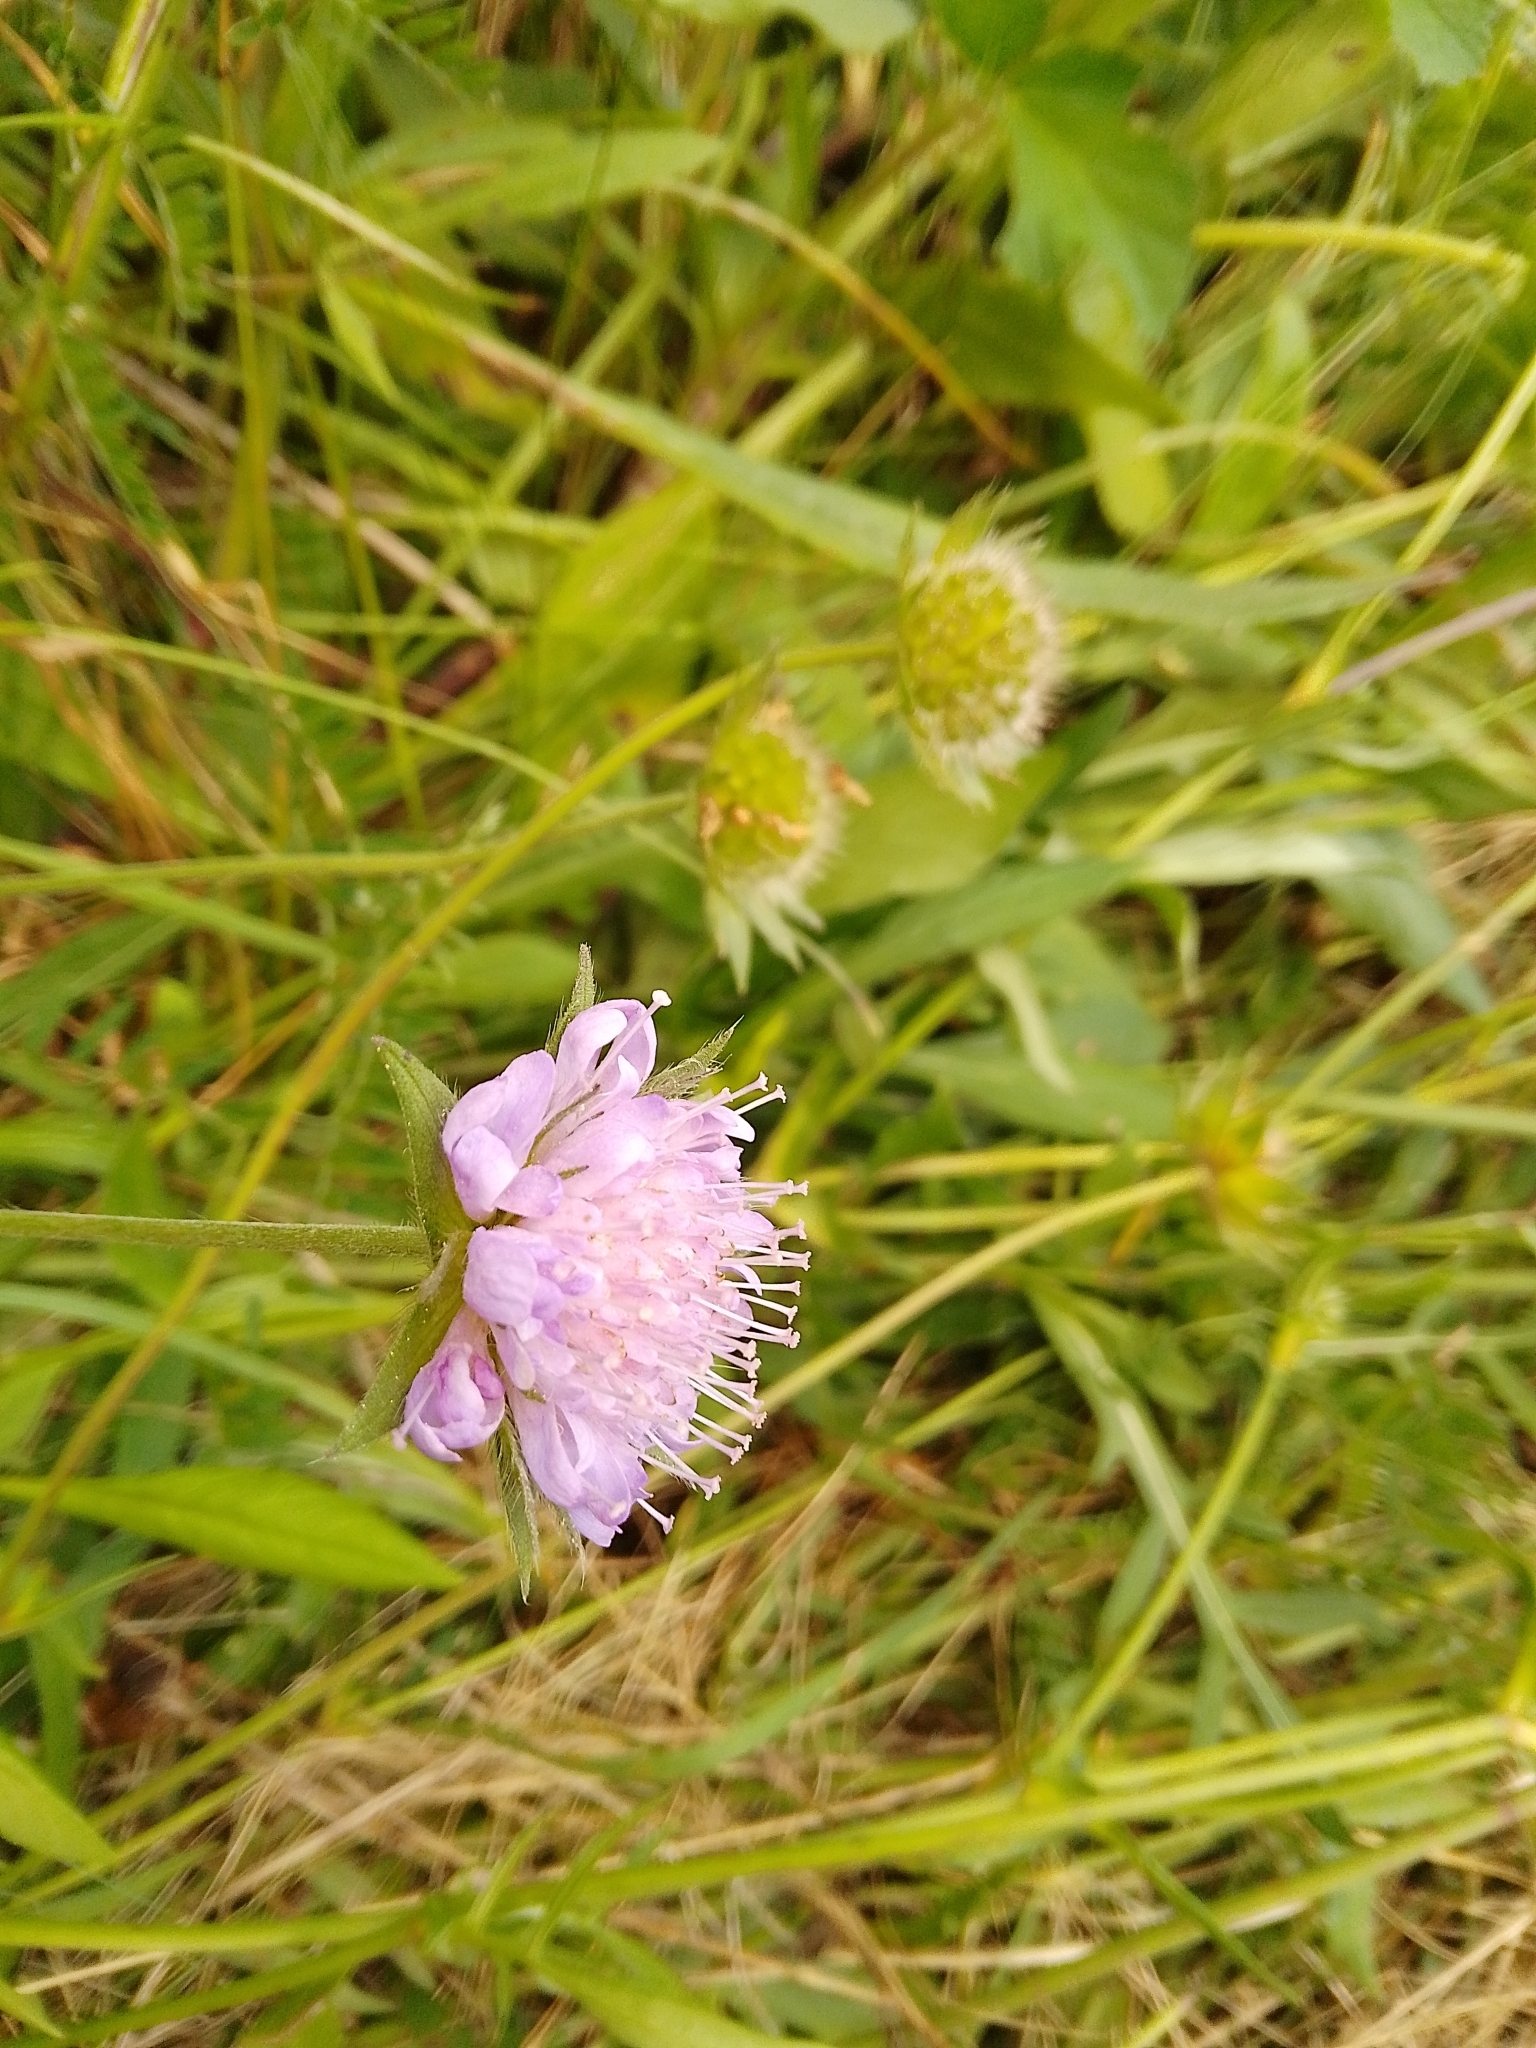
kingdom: Plantae
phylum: Tracheophyta
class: Magnoliopsida
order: Dipsacales
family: Caprifoliaceae
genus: Knautia
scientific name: Knautia arvensis
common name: Field scabiosa
